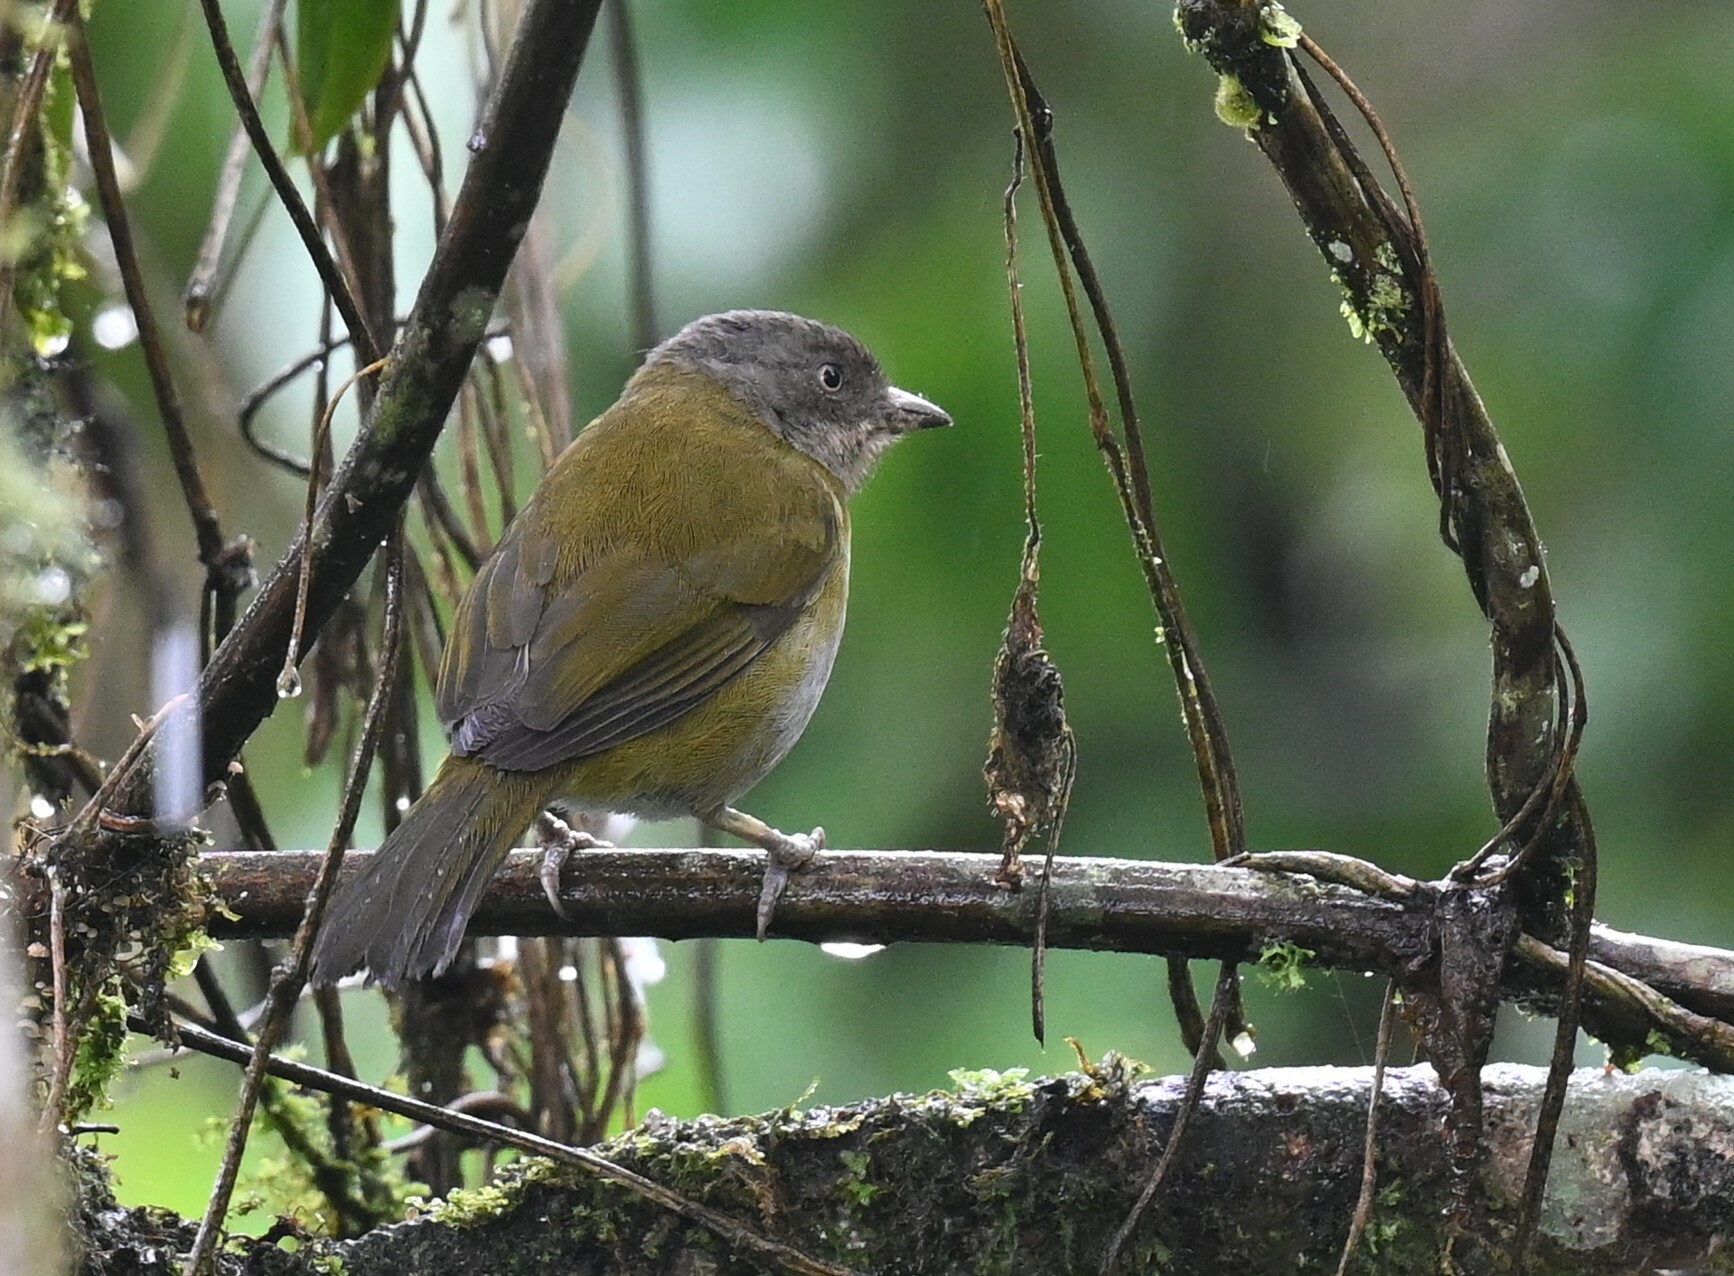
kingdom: Animalia
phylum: Chordata
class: Aves
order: Passeriformes
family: Passerellidae
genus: Chlorospingus
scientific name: Chlorospingus flavopectus
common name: Common chlorospingus
